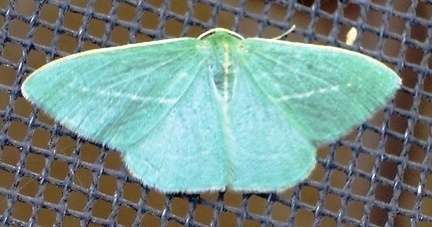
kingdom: Animalia
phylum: Arthropoda
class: Insecta
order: Lepidoptera
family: Geometridae
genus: Chlorocoma
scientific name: Chlorocoma stereota
